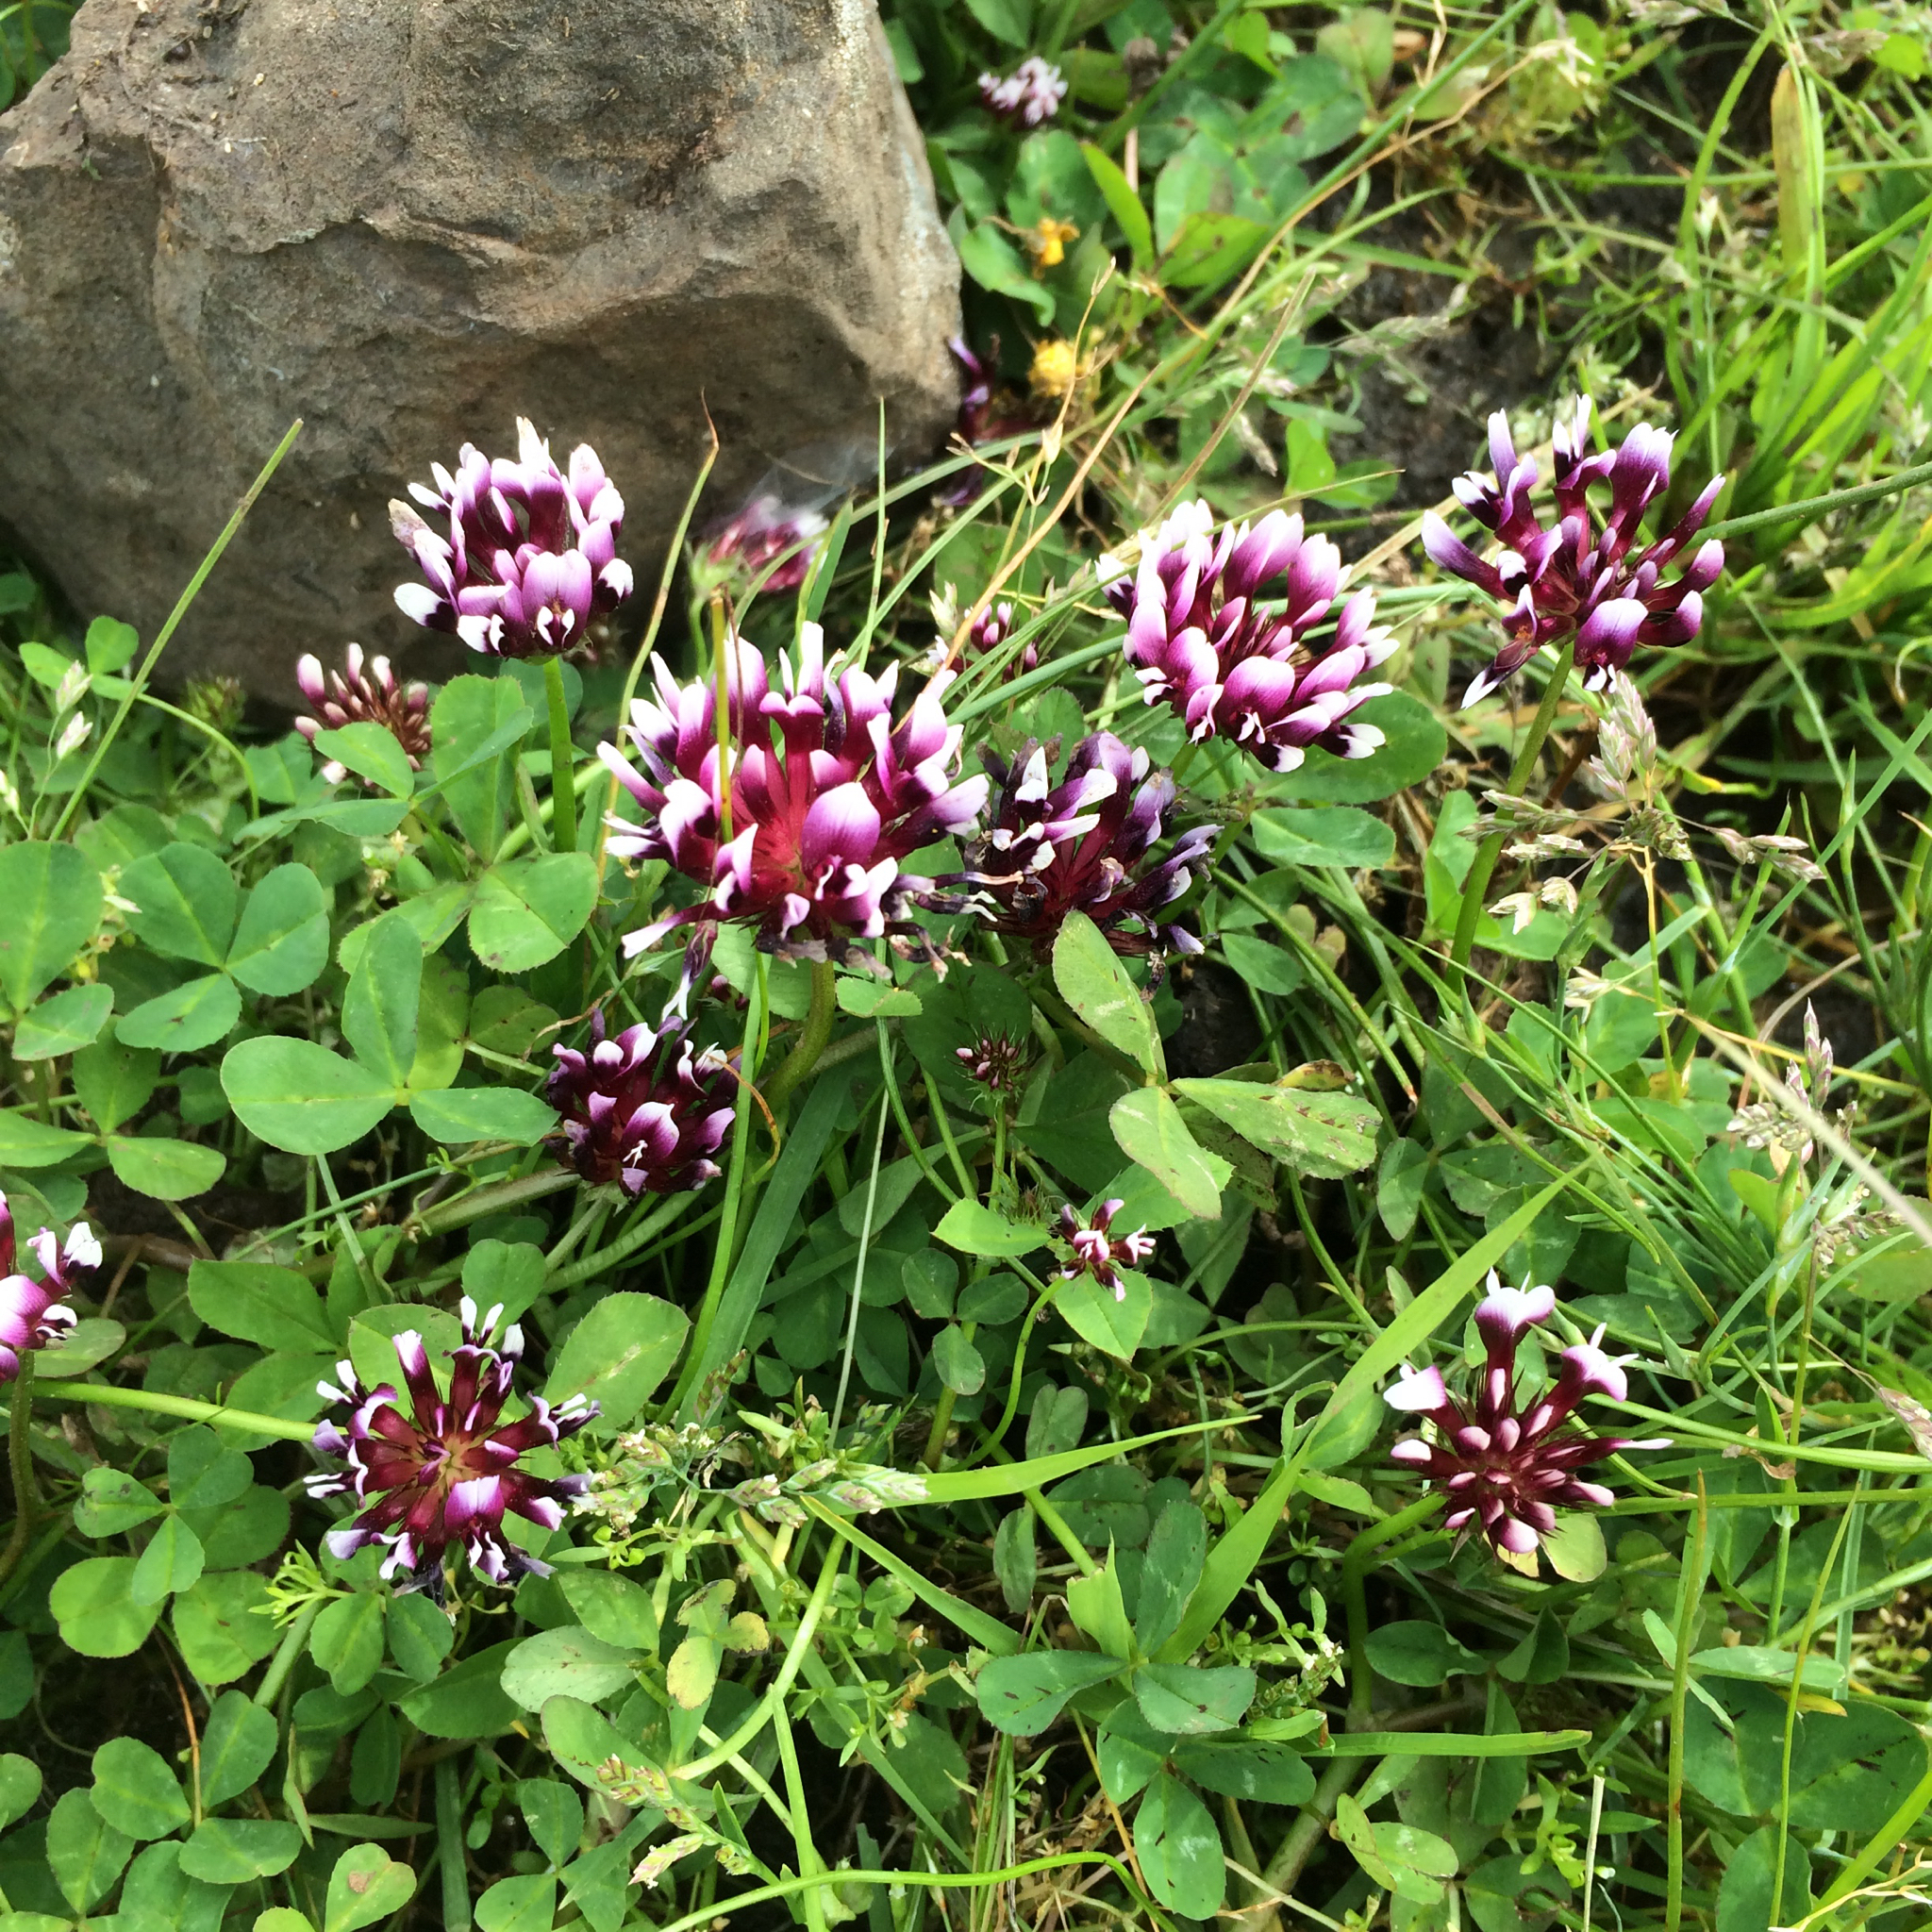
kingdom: Plantae
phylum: Tracheophyta
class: Magnoliopsida
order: Fabales
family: Fabaceae
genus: Trifolium
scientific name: Trifolium variegatum
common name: Whitetip clover
